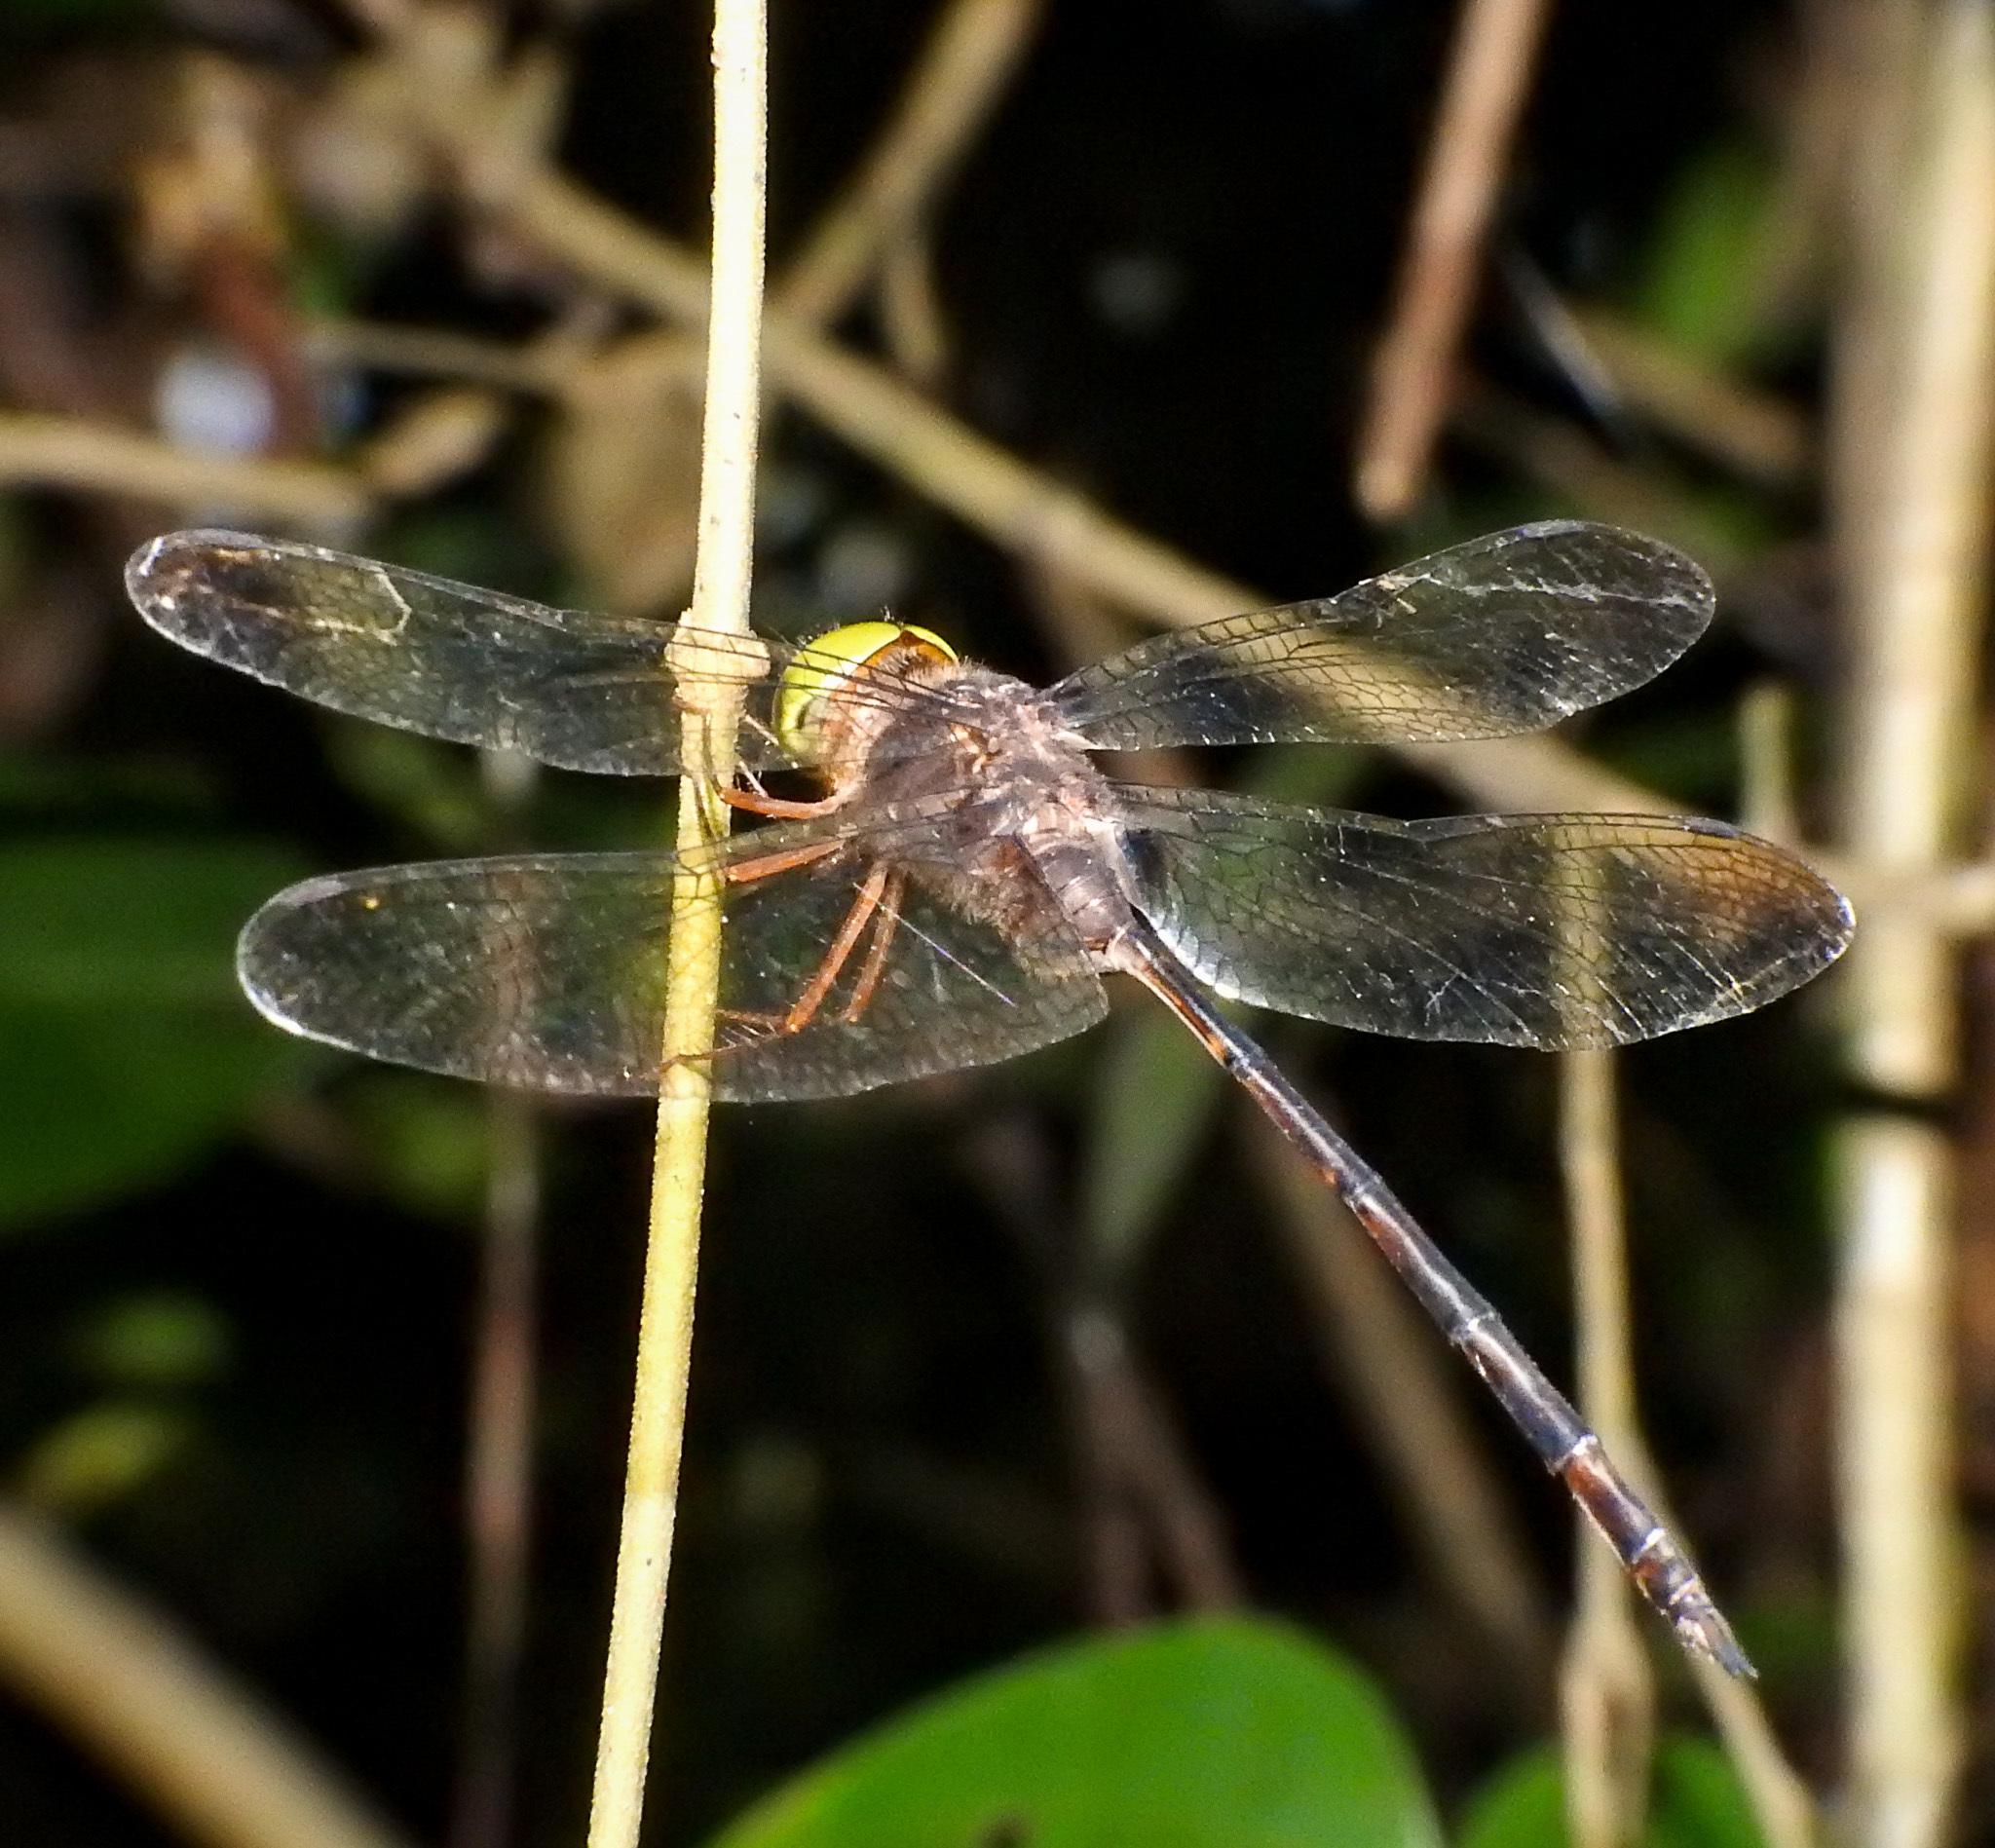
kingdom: Animalia
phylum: Arthropoda
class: Insecta
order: Odonata
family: Libellulidae
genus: Zyxomma
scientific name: Zyxomma petiolatum
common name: Dingy dusk-darter
